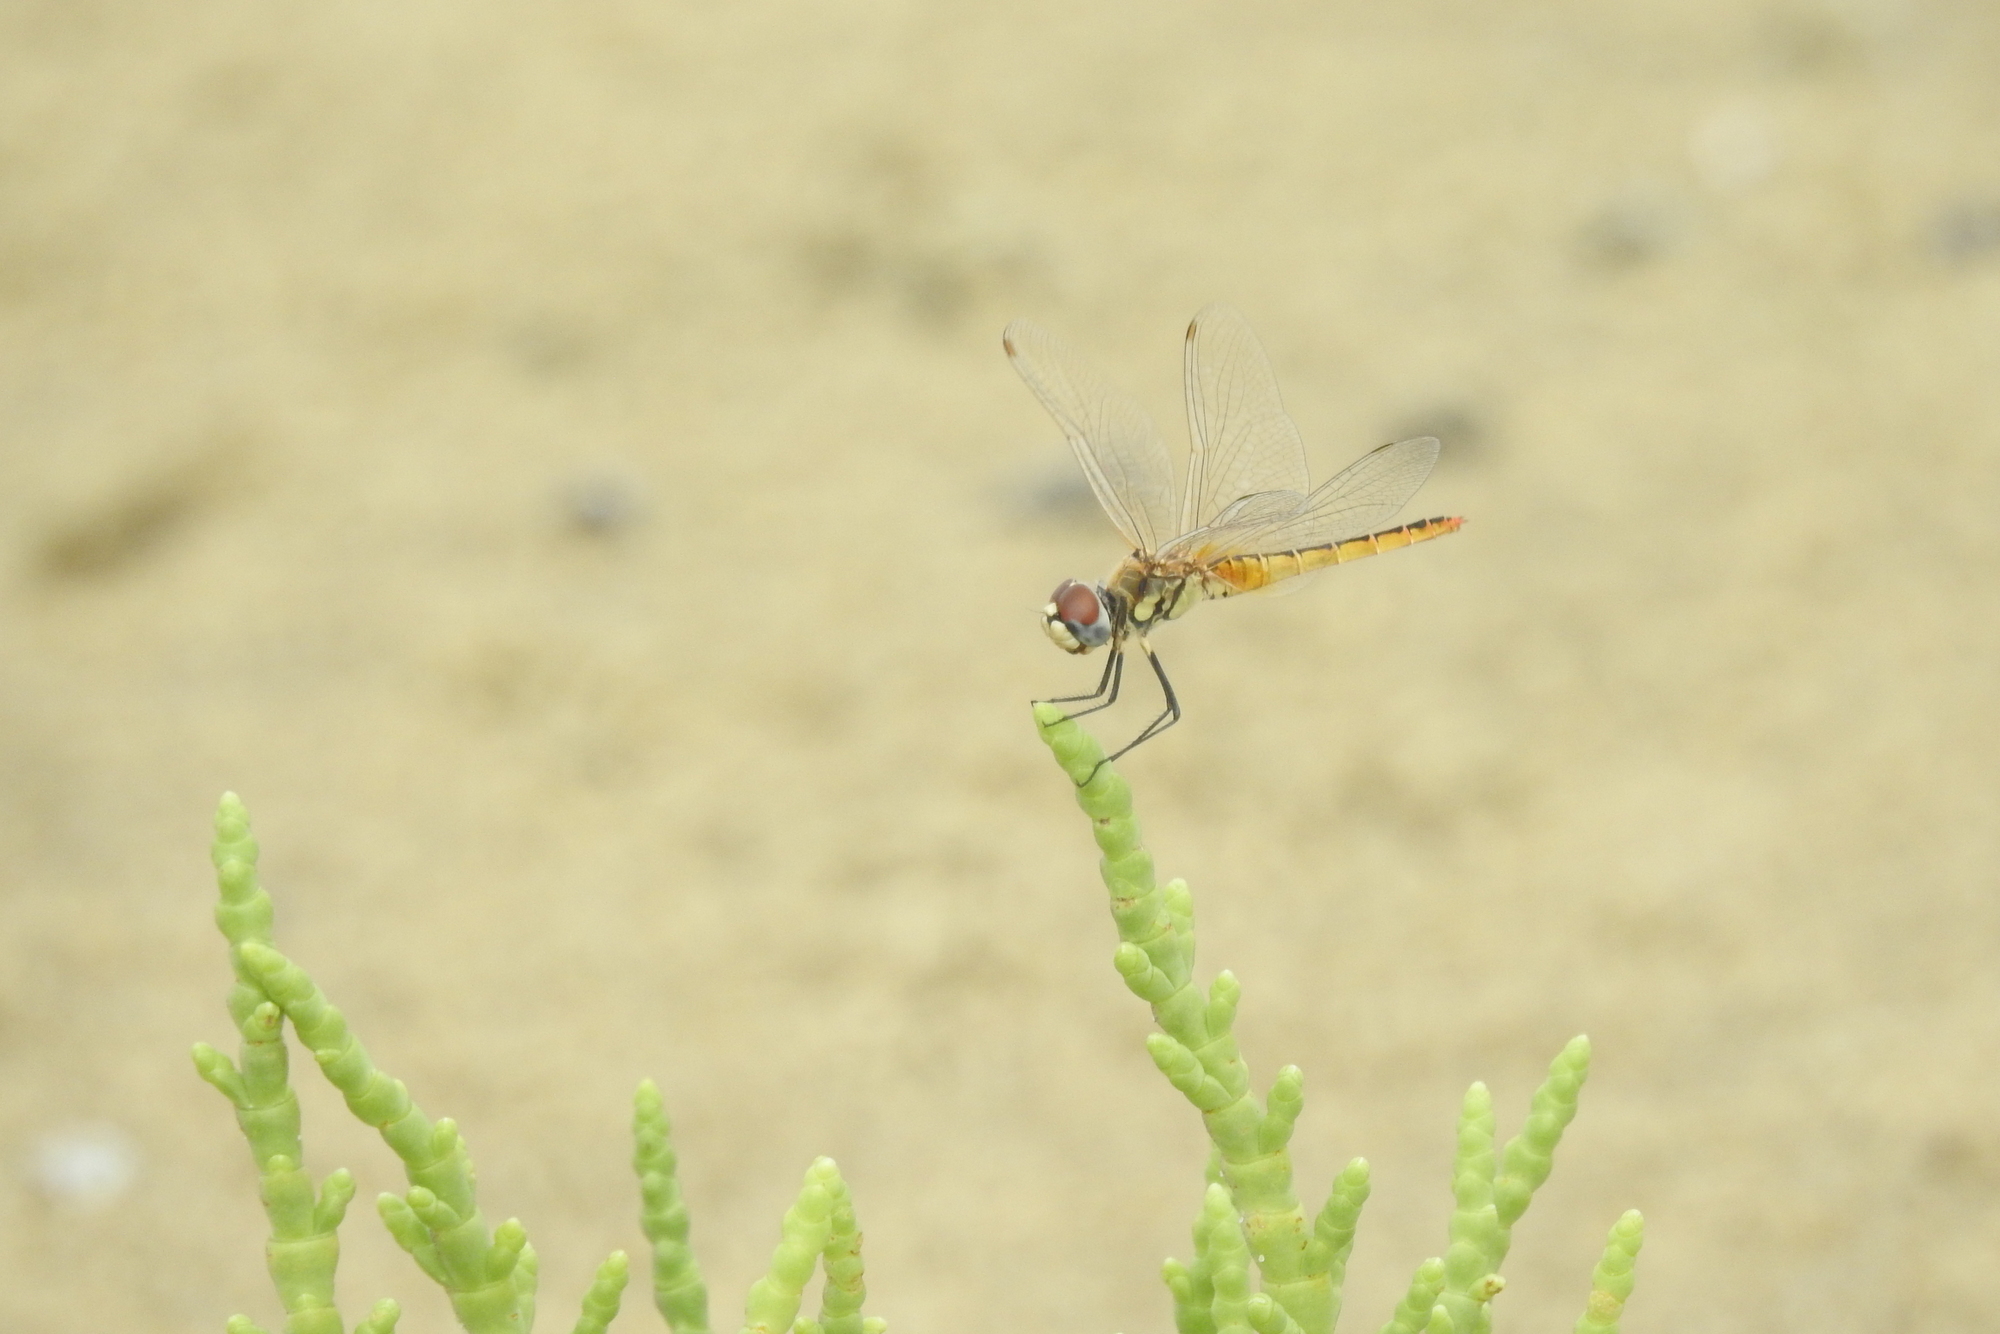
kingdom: Animalia
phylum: Arthropoda
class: Insecta
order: Odonata
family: Libellulidae
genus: Macrodiplax
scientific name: Macrodiplax cora
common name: Coastal glider
